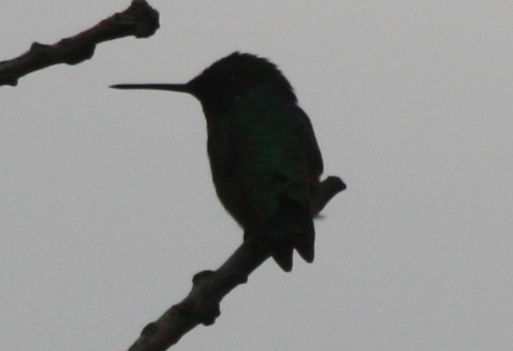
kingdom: Animalia
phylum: Chordata
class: Aves
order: Apodiformes
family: Trochilidae
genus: Archilochus
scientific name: Archilochus colubris
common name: Ruby-throated hummingbird
